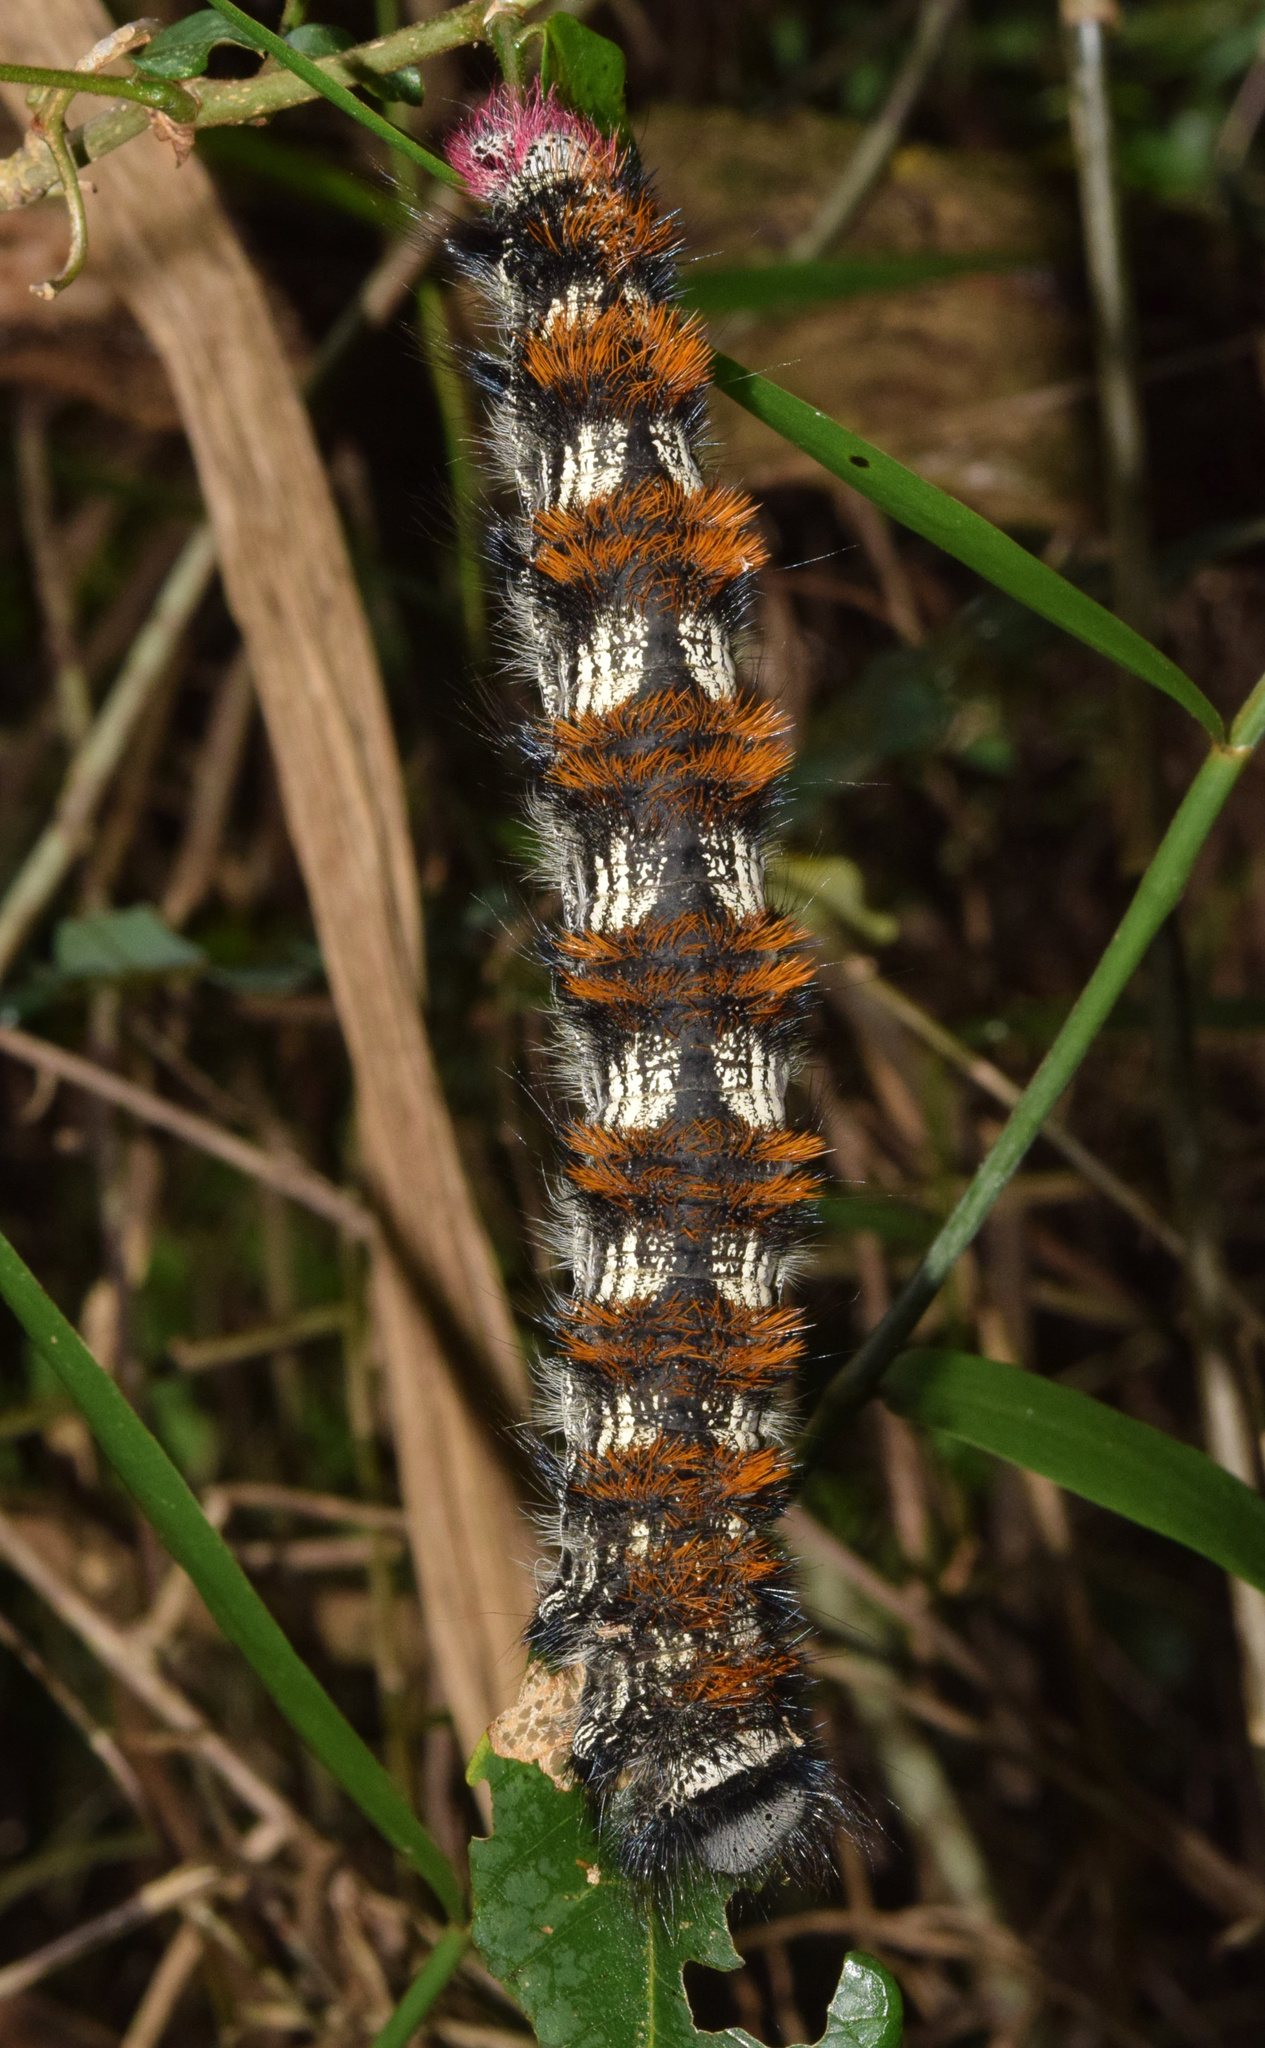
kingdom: Animalia
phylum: Arthropoda
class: Insecta
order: Lepidoptera
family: Lasiocampidae
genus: Catalebeda
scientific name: Catalebeda cuneilinea
